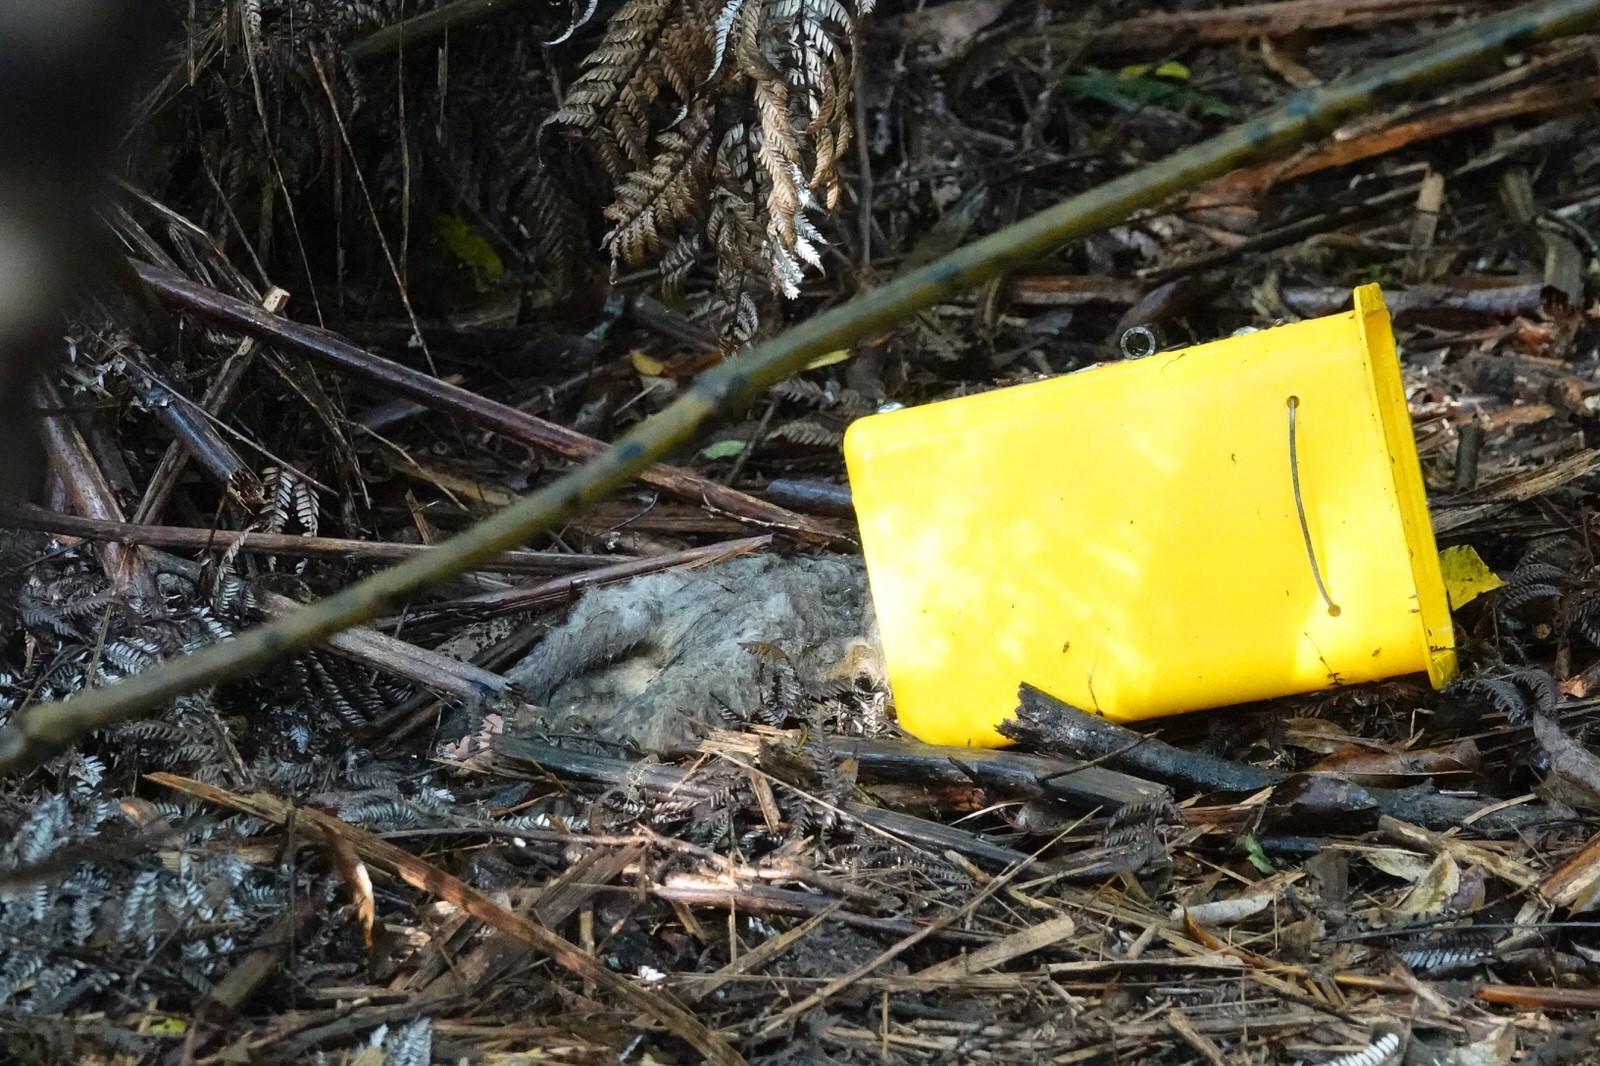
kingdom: Animalia
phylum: Chordata
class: Mammalia
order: Diprotodontia
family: Phalangeridae
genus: Trichosurus
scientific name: Trichosurus vulpecula
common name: Common brushtail
